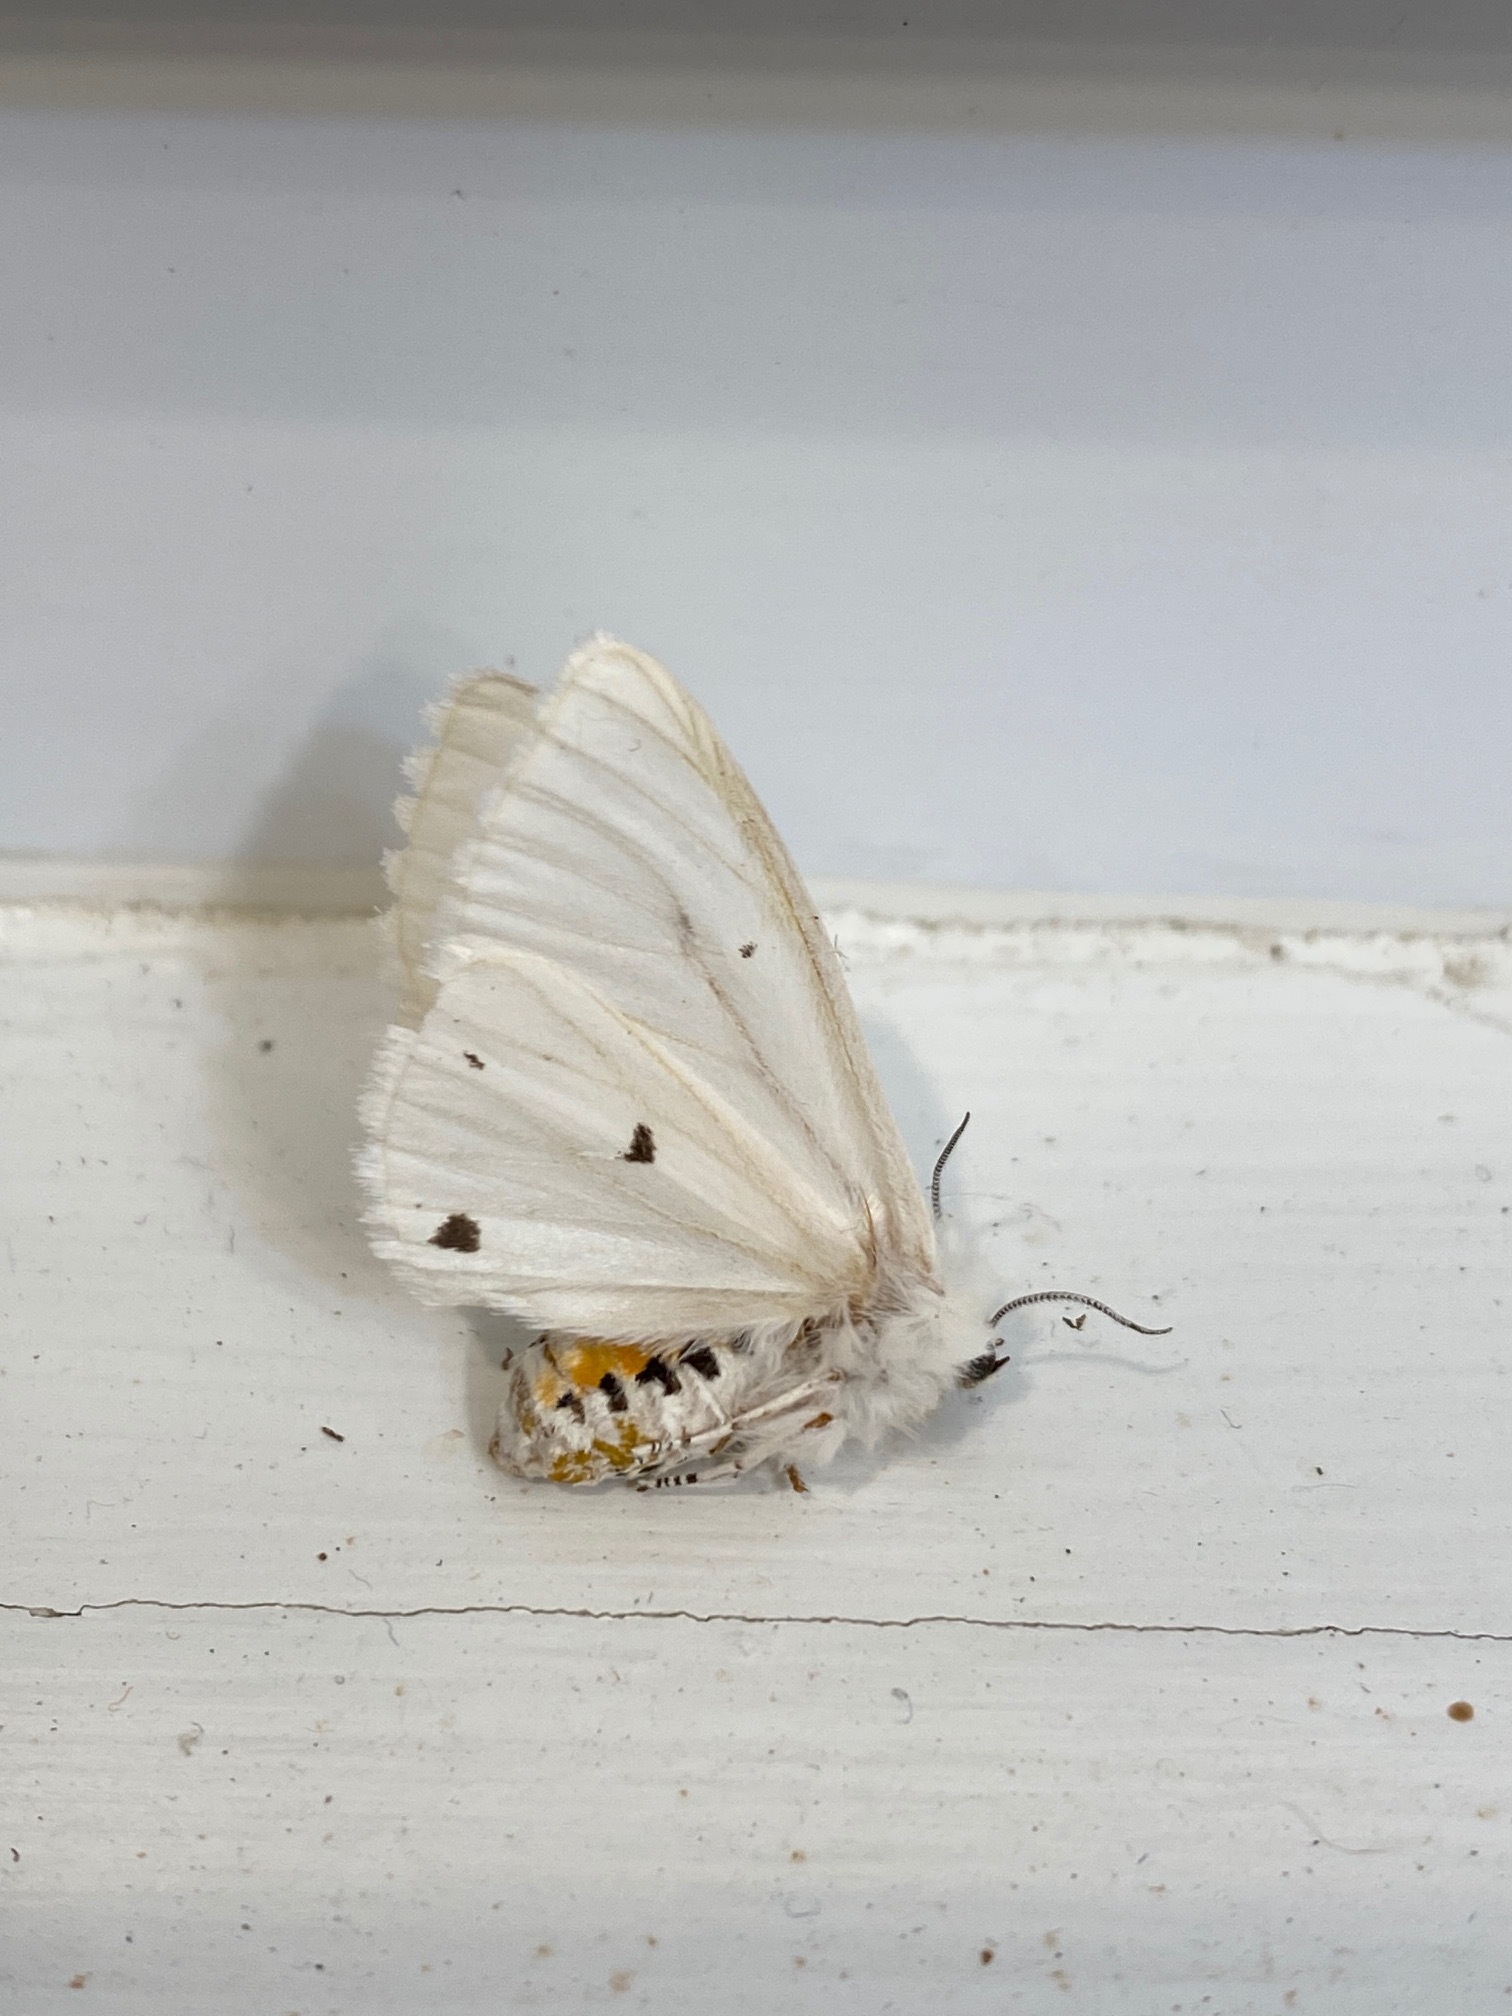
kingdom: Animalia
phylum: Arthropoda
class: Insecta
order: Lepidoptera
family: Erebidae
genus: Spilosoma
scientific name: Spilosoma virginica
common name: Virginia tiger moth
